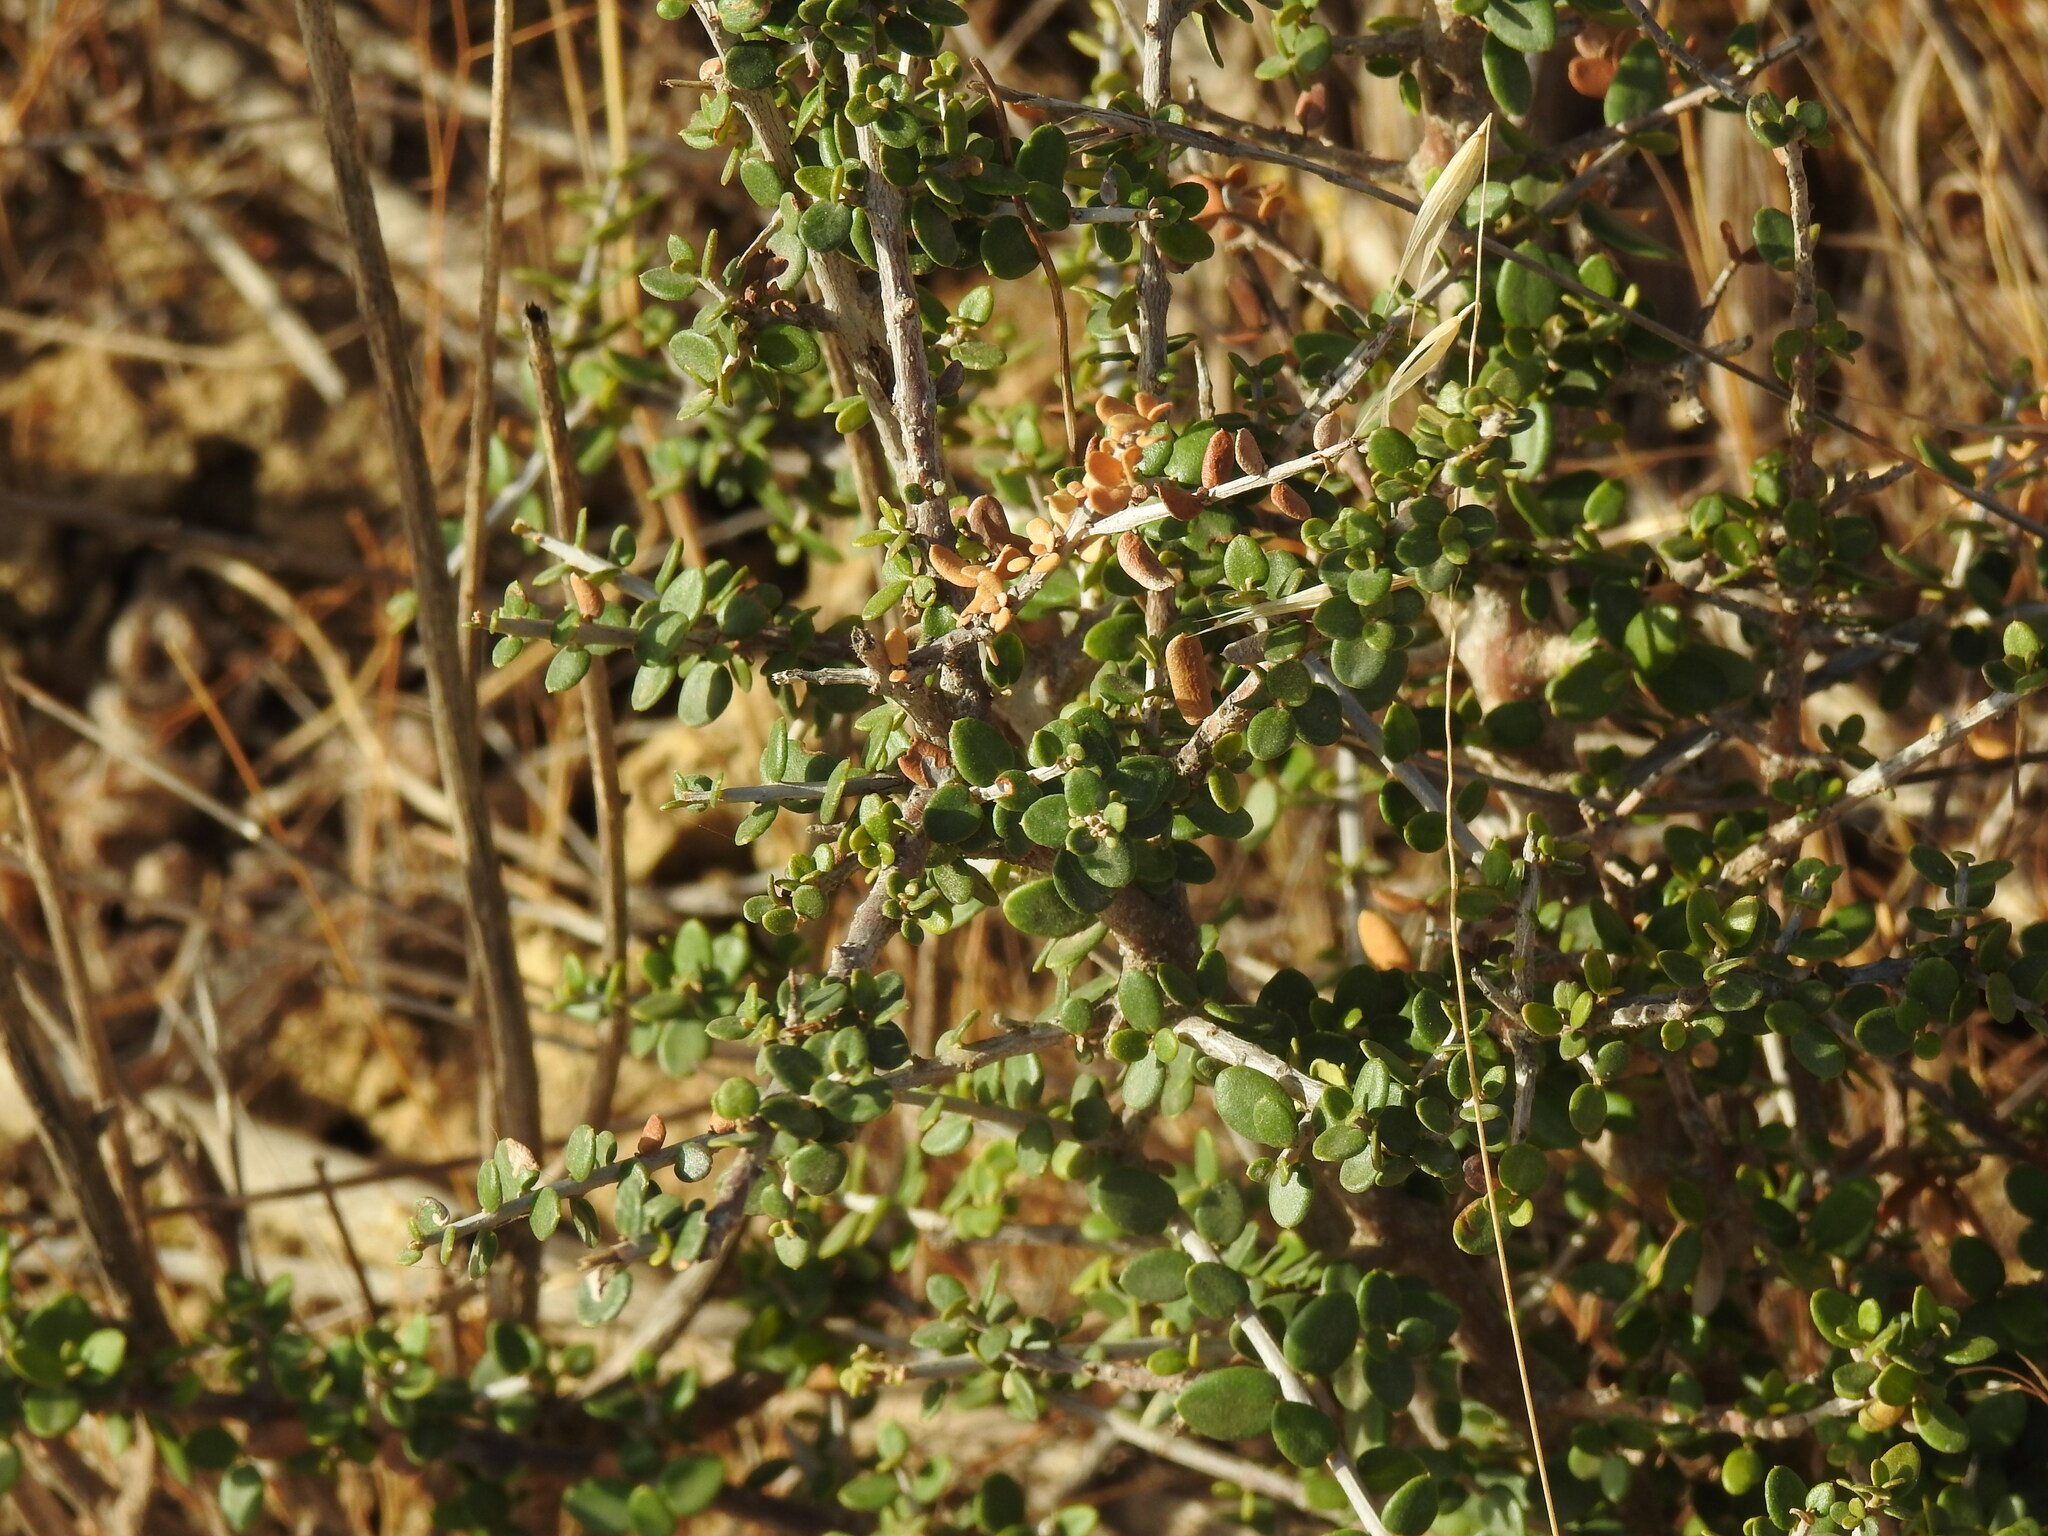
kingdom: Plantae
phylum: Tracheophyta
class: Magnoliopsida
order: Lamiales
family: Oleaceae
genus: Olea
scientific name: Olea europaea
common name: Olive
